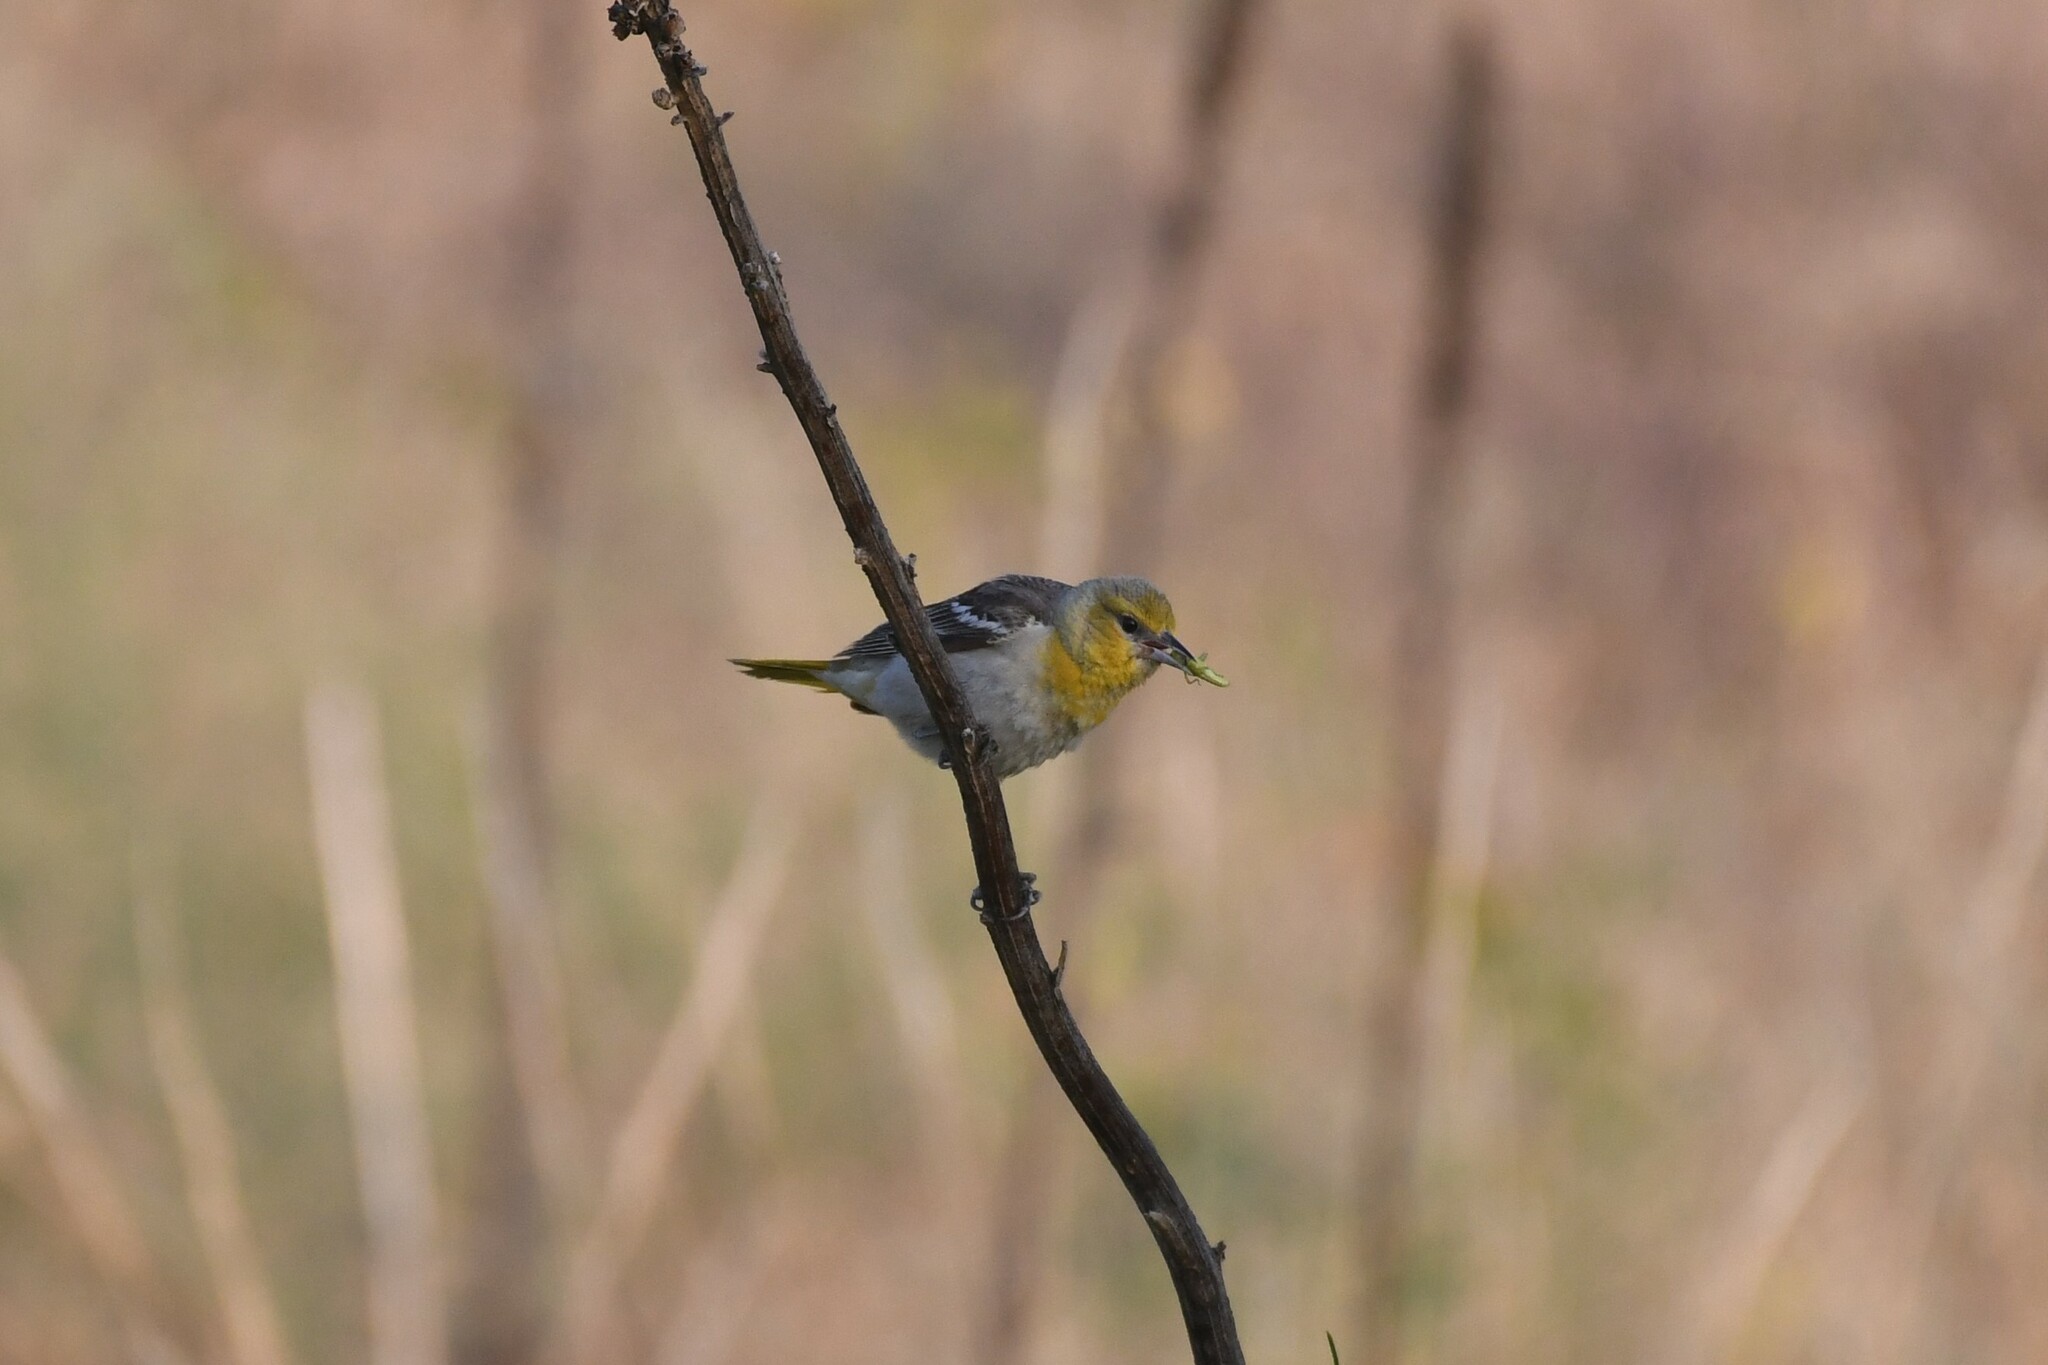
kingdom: Animalia
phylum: Chordata
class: Aves
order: Passeriformes
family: Icteridae
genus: Icterus
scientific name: Icterus bullockii
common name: Bullock's oriole
